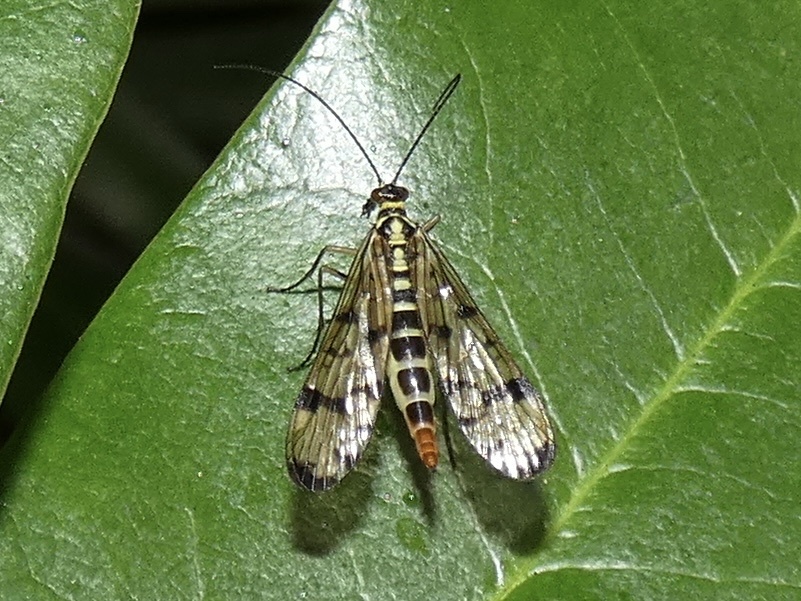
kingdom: Animalia
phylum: Arthropoda
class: Insecta
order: Mecoptera
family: Panorpidae
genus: Panorpa
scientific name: Panorpa communis
